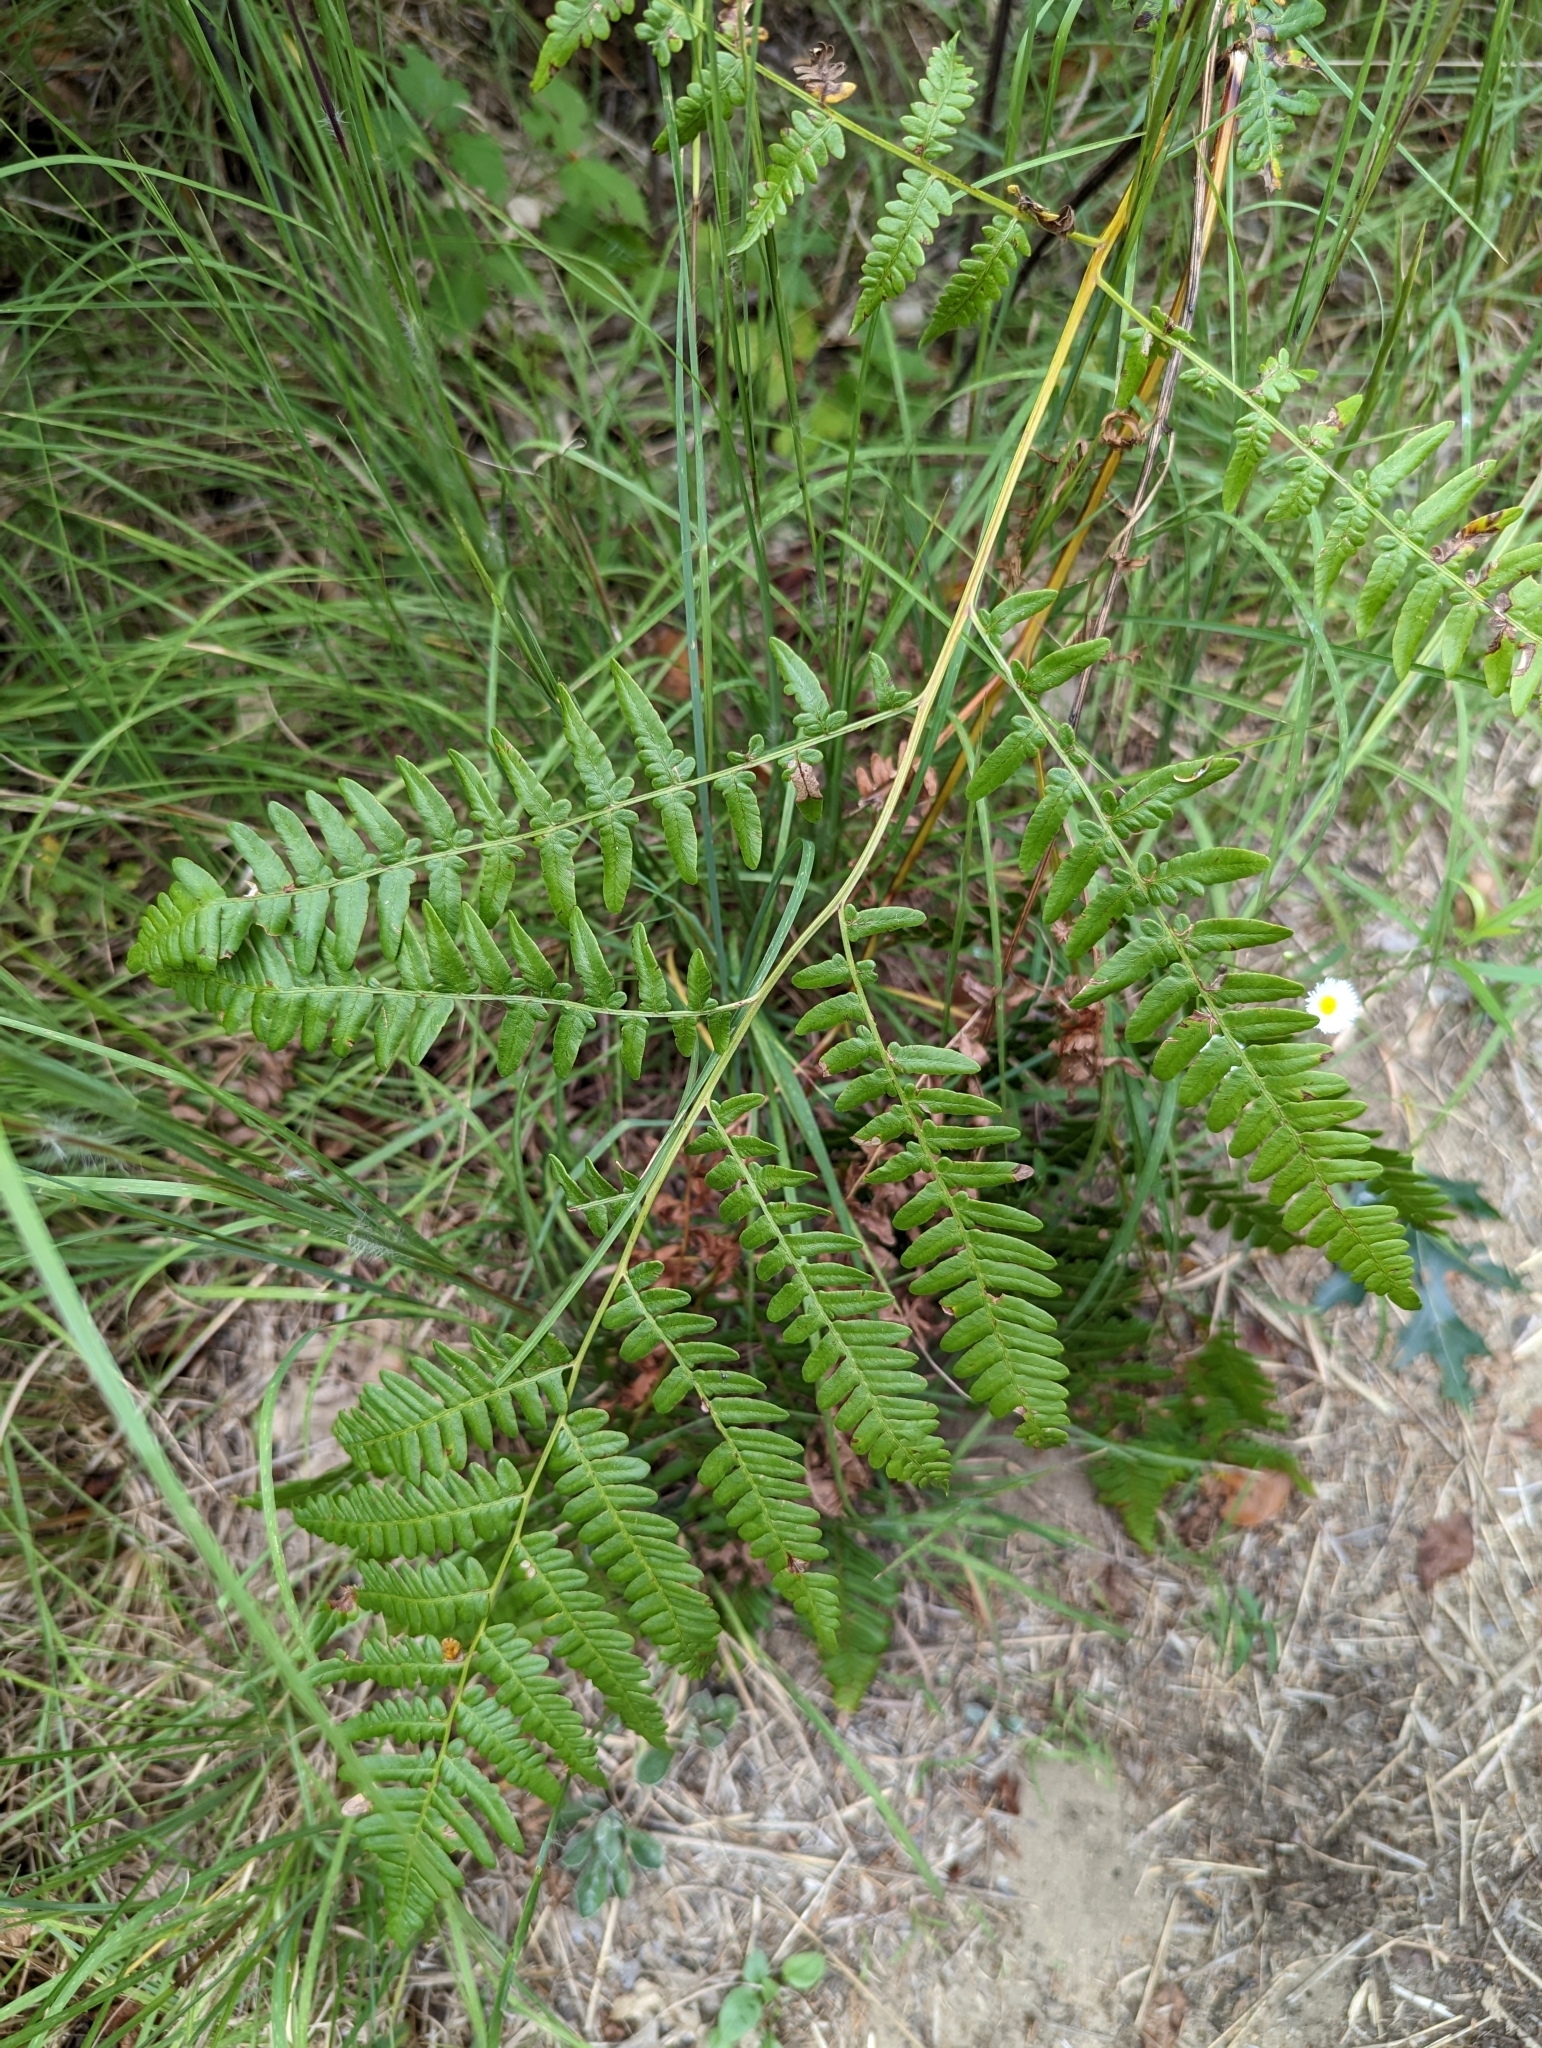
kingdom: Plantae
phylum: Tracheophyta
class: Polypodiopsida
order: Polypodiales
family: Dennstaedtiaceae
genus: Pteridium
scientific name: Pteridium aquilinum
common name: Bracken
